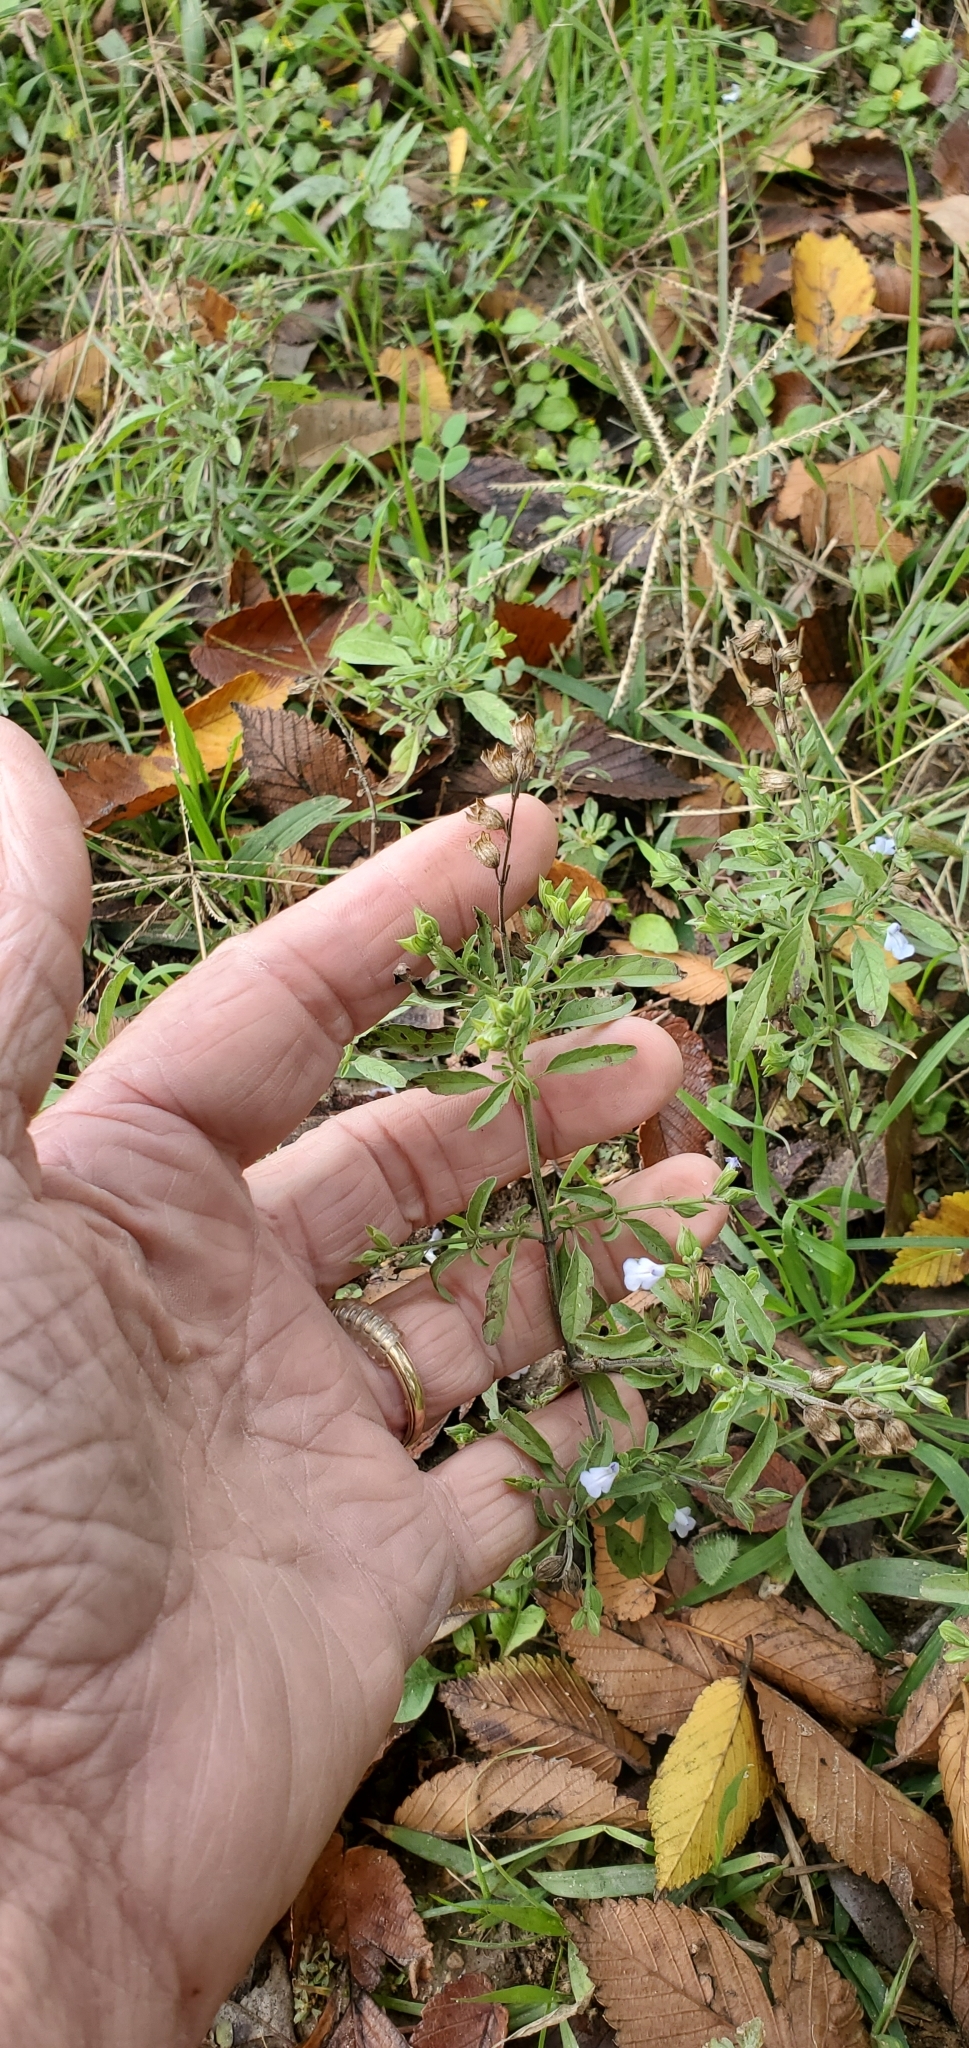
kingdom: Plantae
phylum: Tracheophyta
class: Magnoliopsida
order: Lamiales
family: Lamiaceae
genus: Salvia
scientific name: Salvia reflexa
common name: Mintweed
